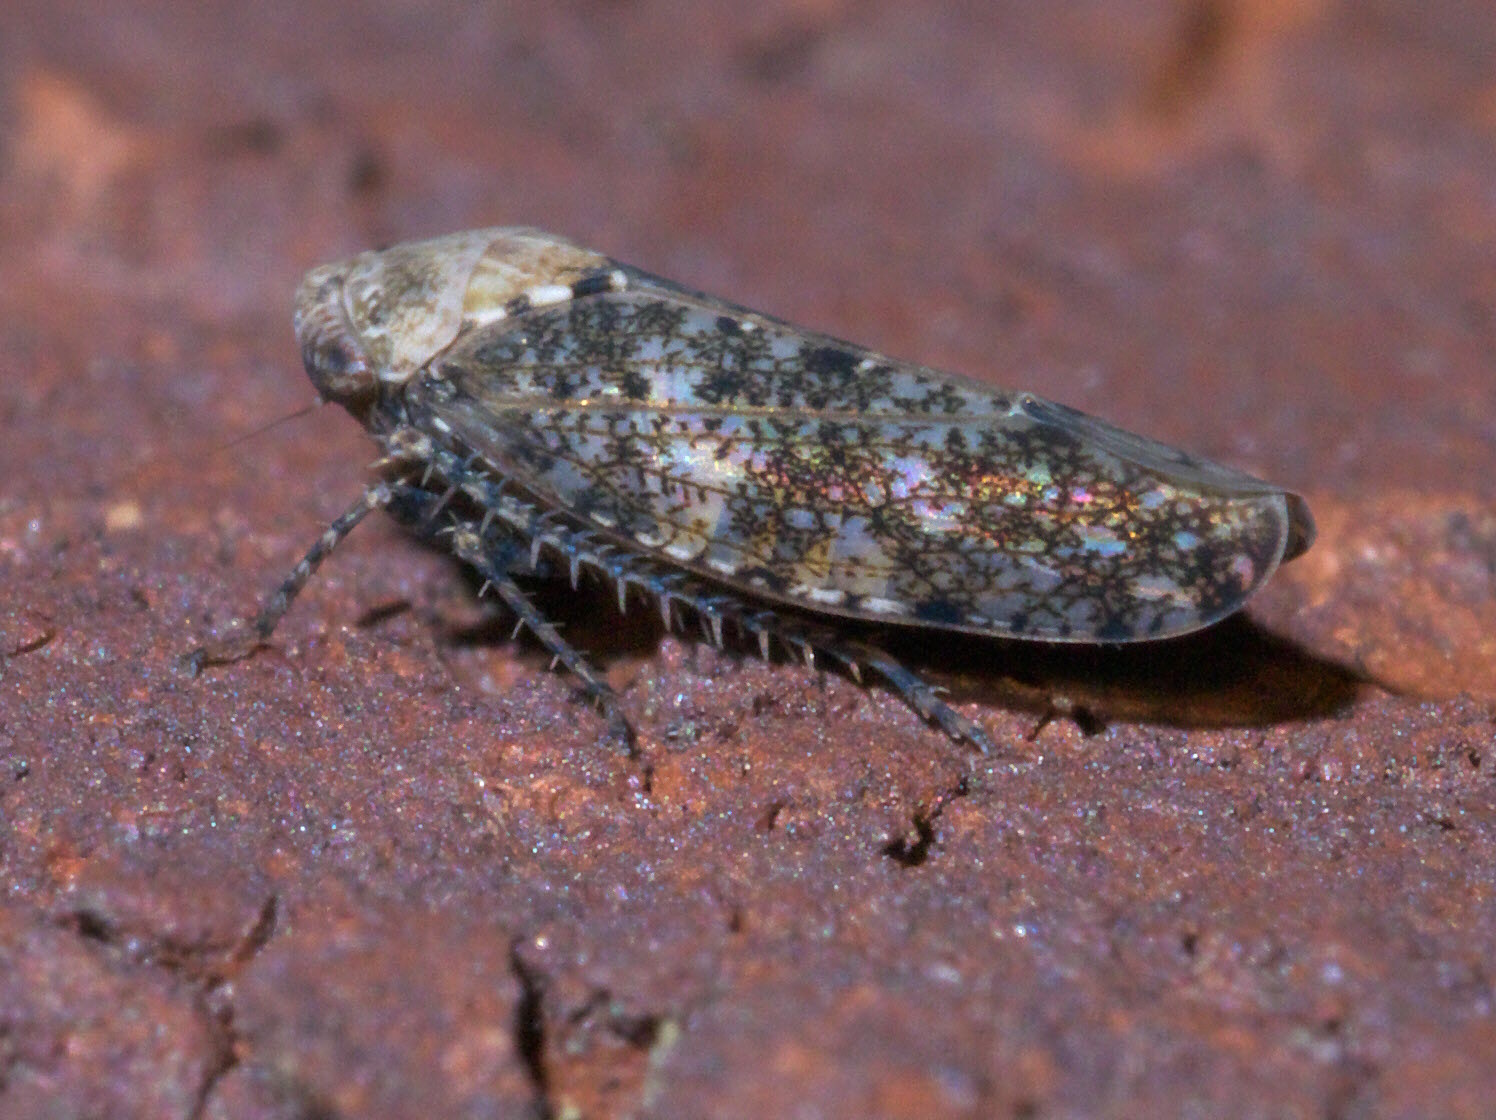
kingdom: Animalia
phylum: Arthropoda
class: Insecta
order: Hemiptera
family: Cicadellidae
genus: Paraphlepsius
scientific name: Paraphlepsius collitus
